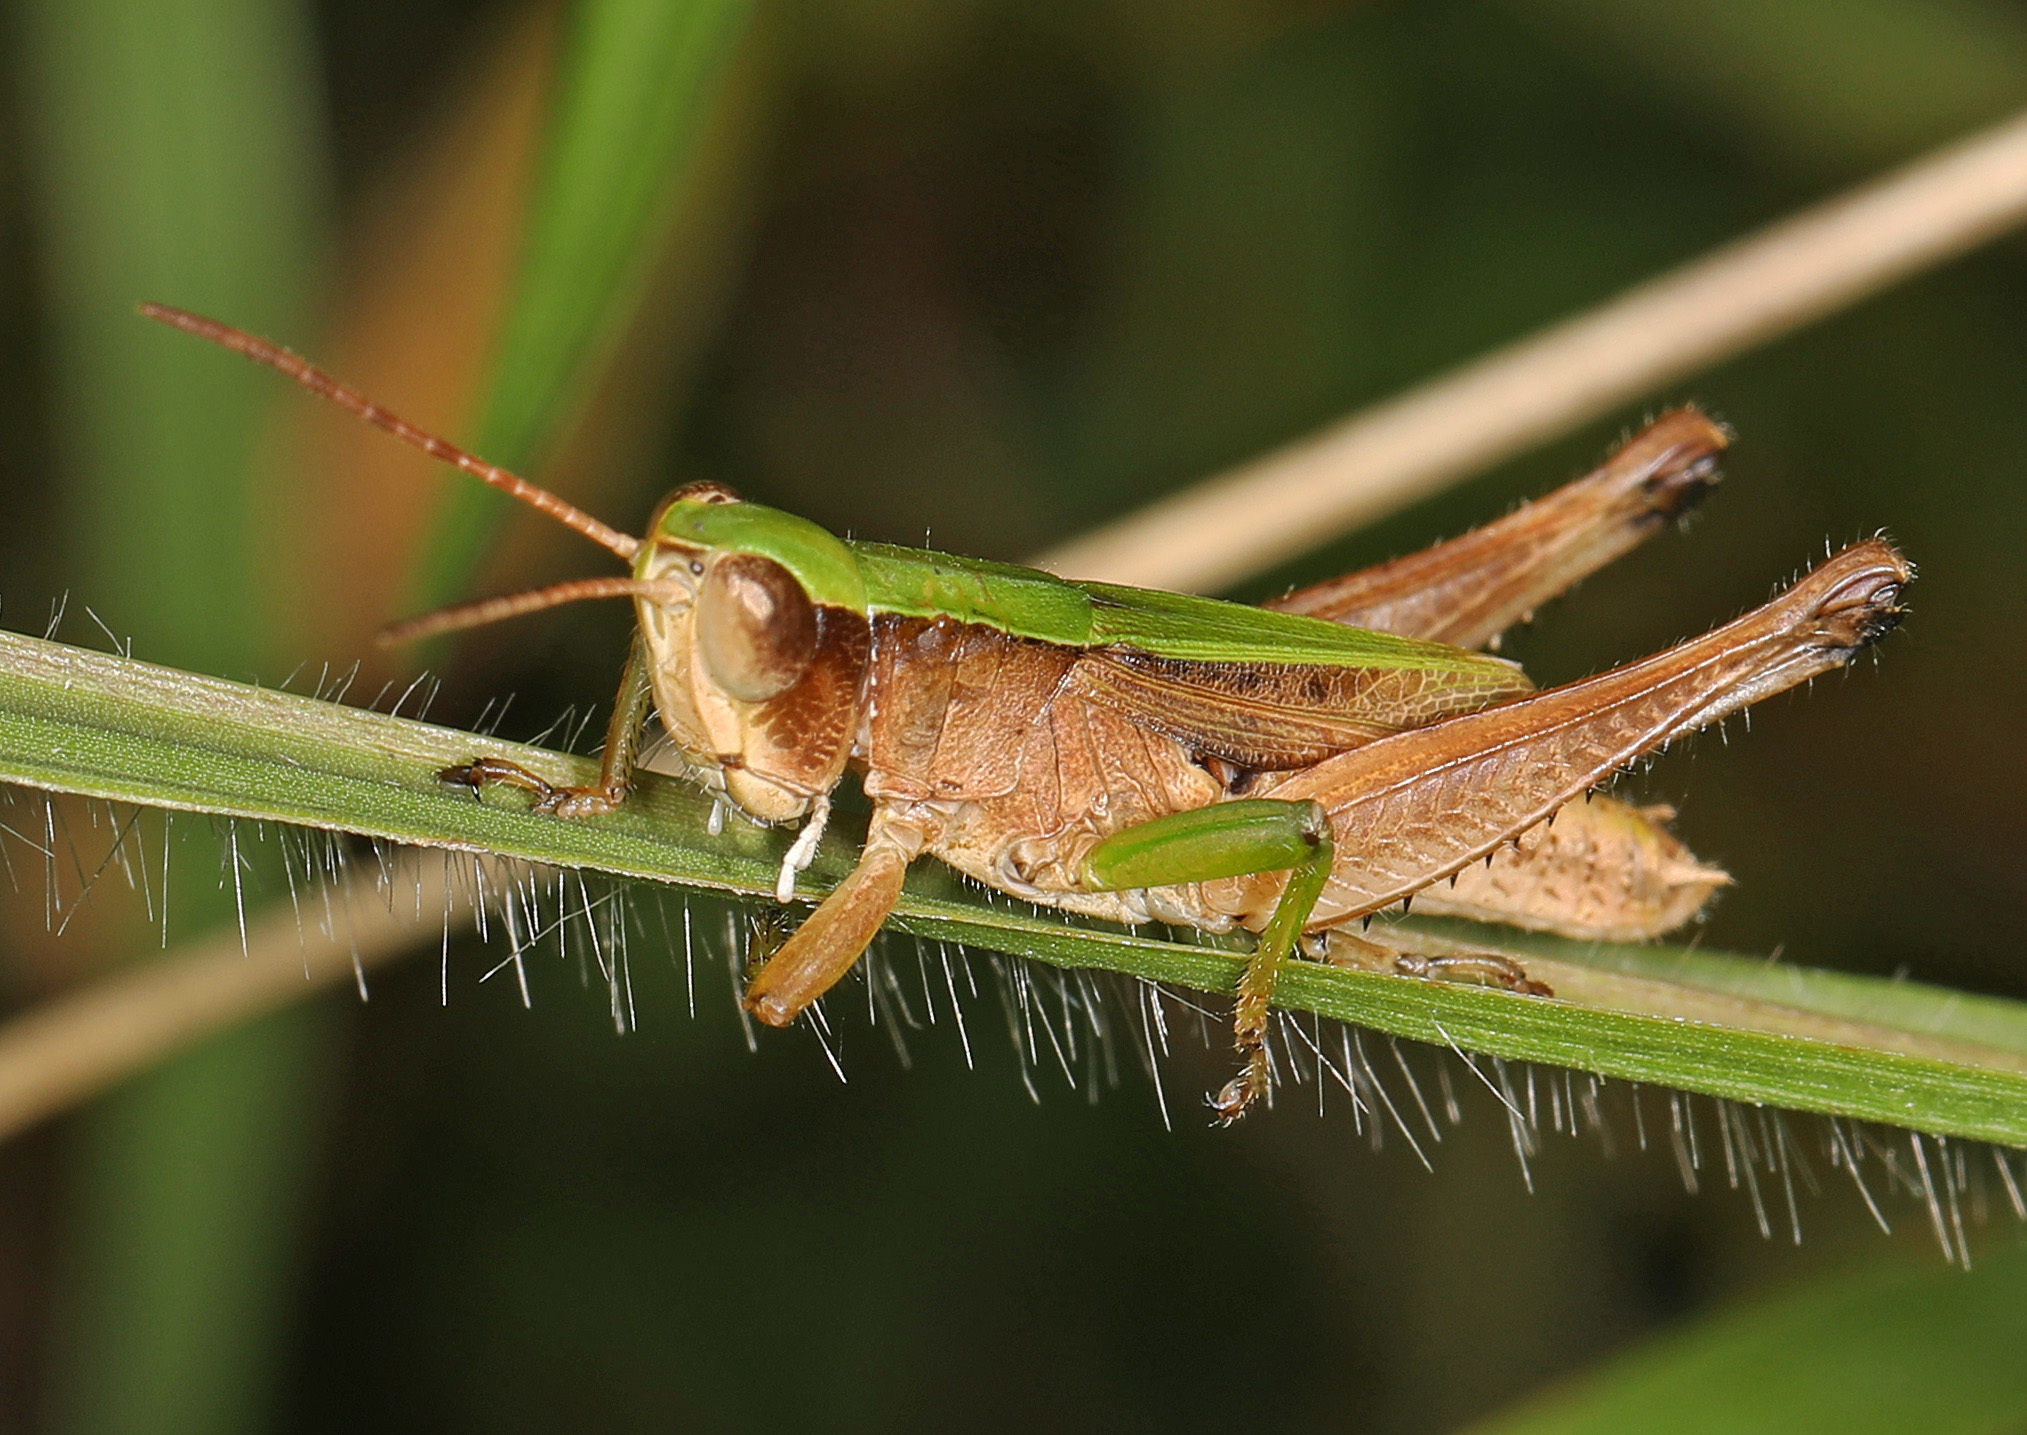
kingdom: Animalia
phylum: Arthropoda
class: Insecta
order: Orthoptera
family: Acrididae
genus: Dichromorpha
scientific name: Dichromorpha viridis
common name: Short-winged green grasshopper
